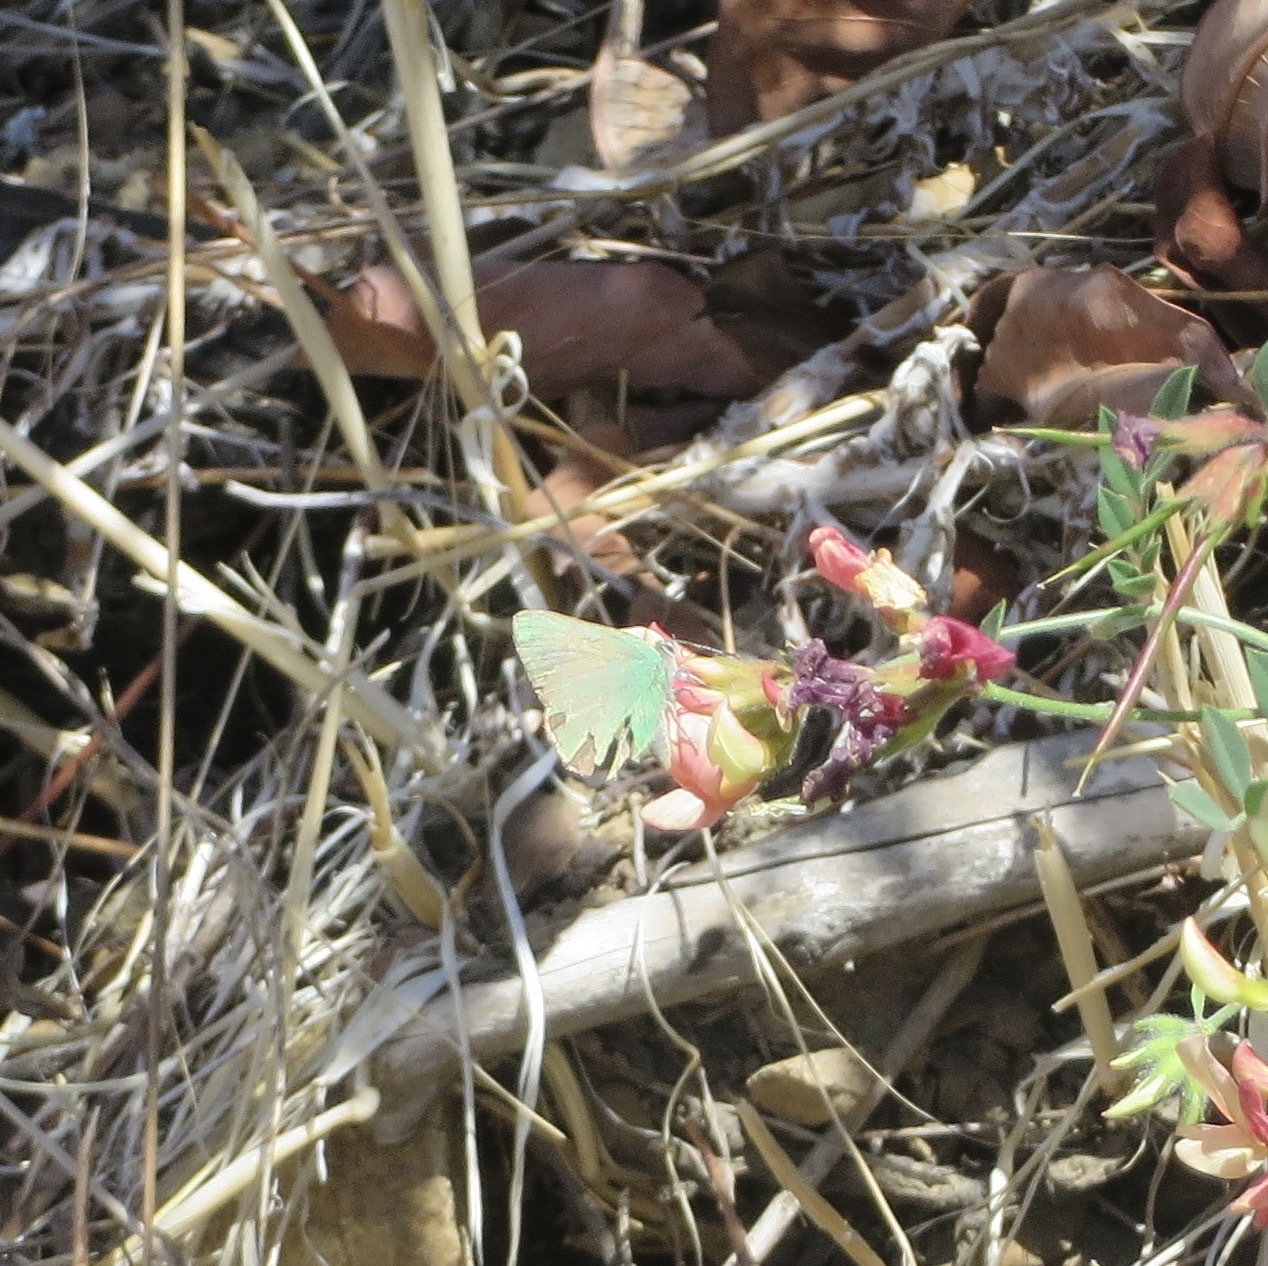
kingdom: Animalia
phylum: Arthropoda
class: Insecta
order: Lepidoptera
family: Lycaenidae
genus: Callophrys
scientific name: Callophrys dumetorum
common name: Bramble hairstreak
